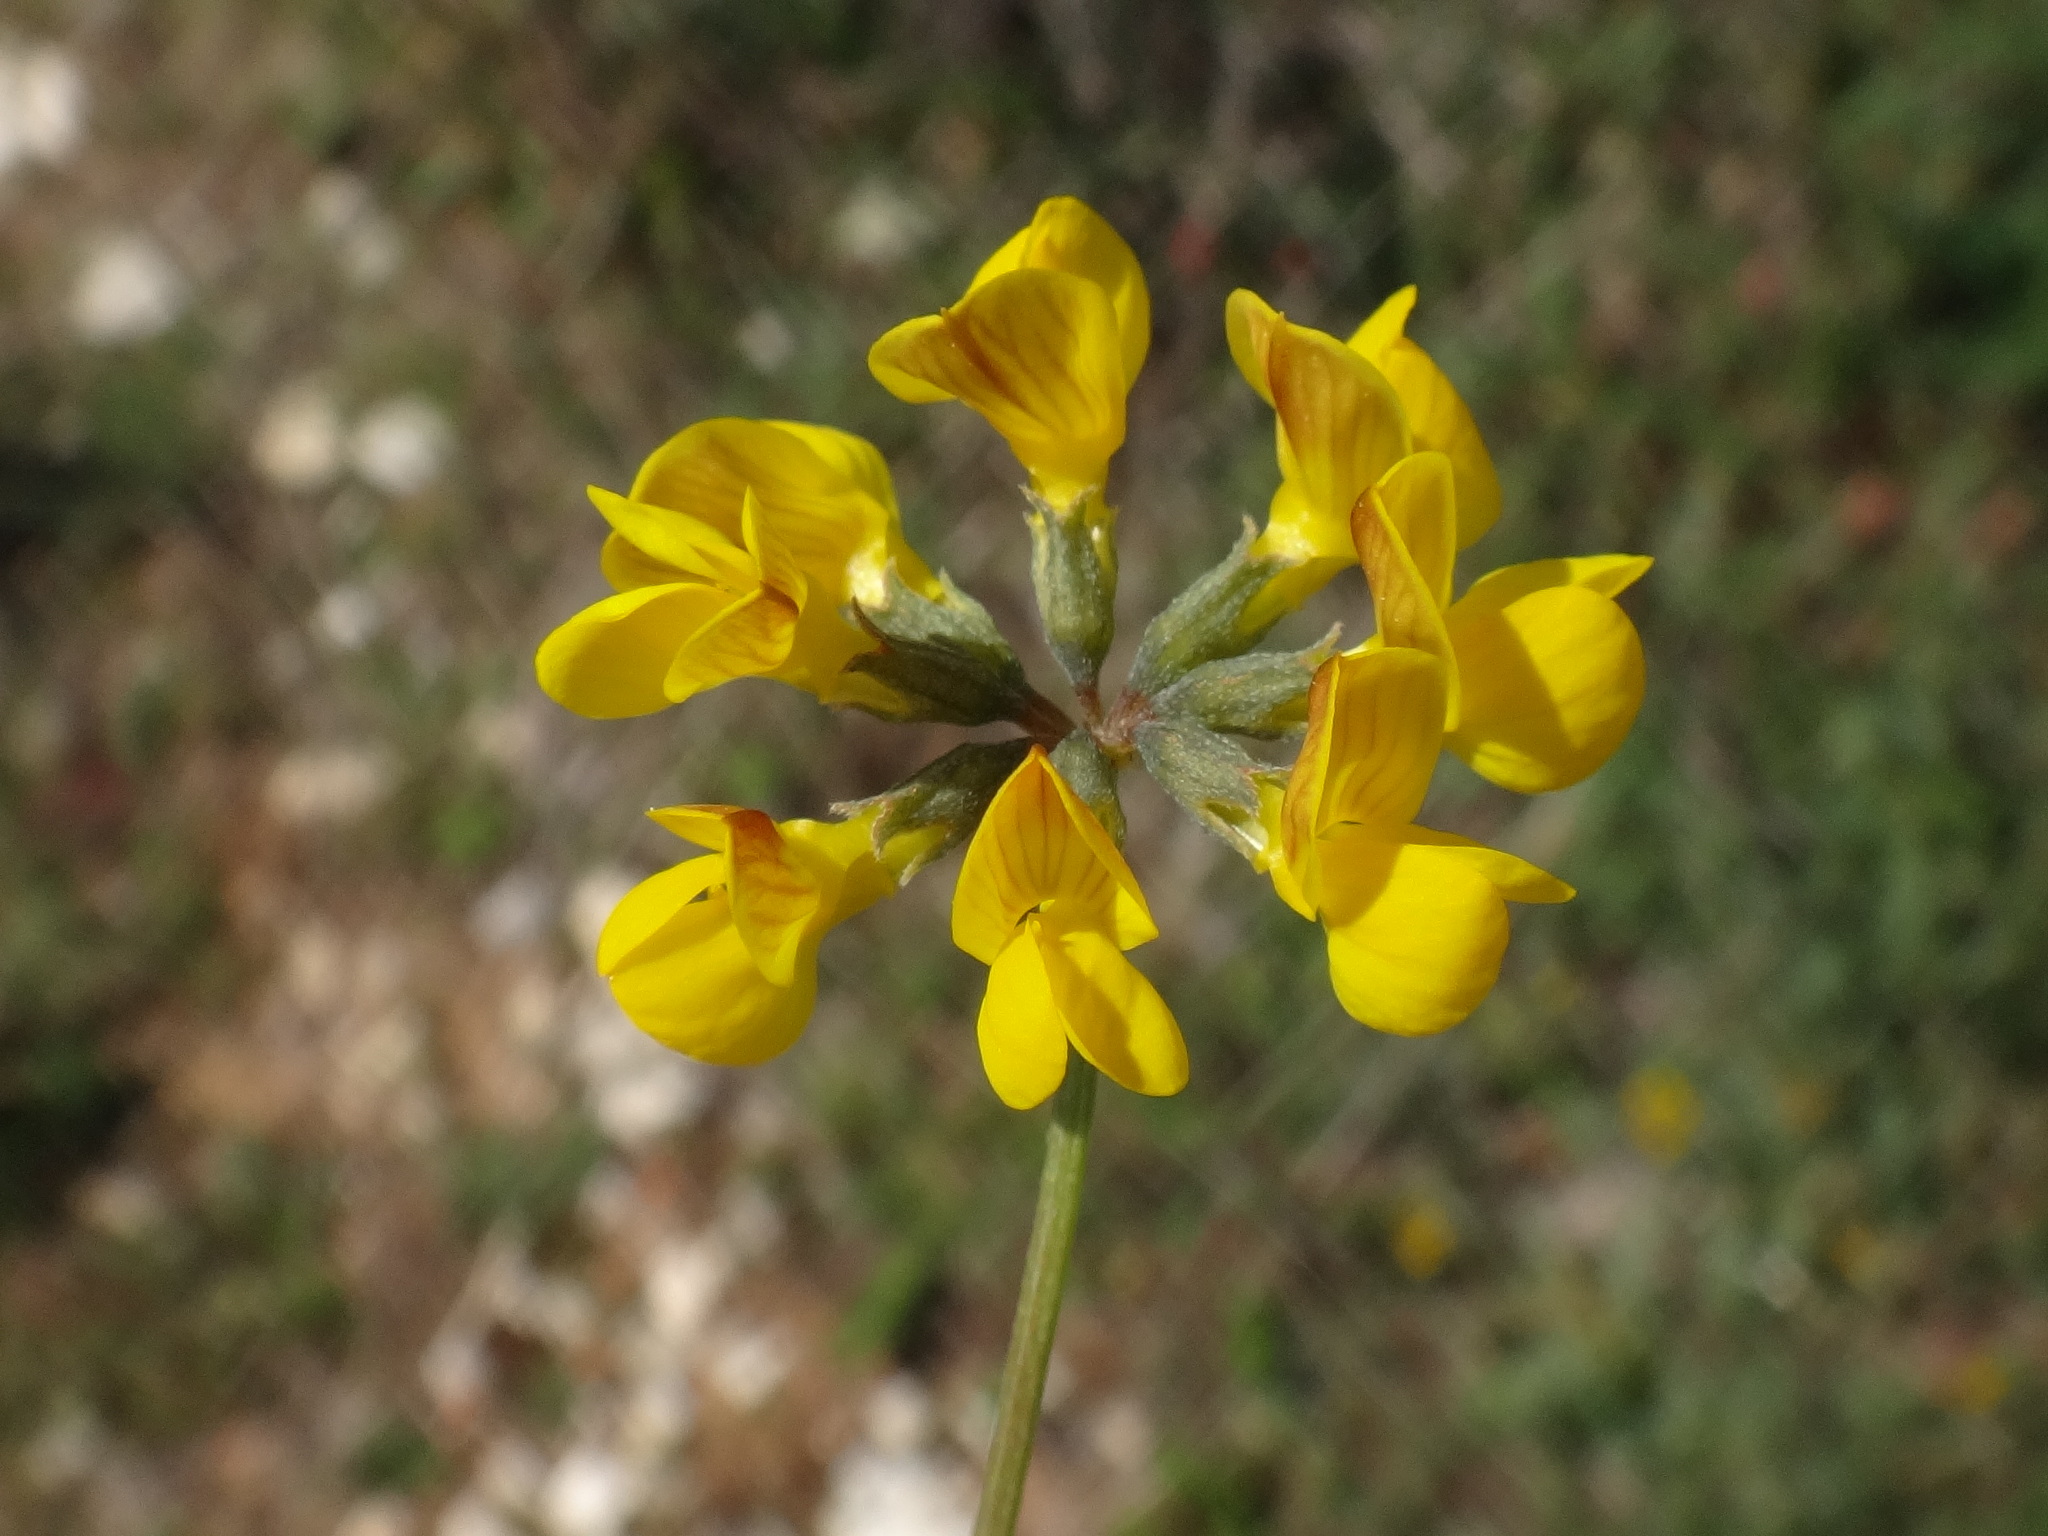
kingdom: Plantae
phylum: Tracheophyta
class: Magnoliopsida
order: Fabales
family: Fabaceae
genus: Hippocrepis
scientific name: Hippocrepis comosa
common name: Horseshoe vetch
